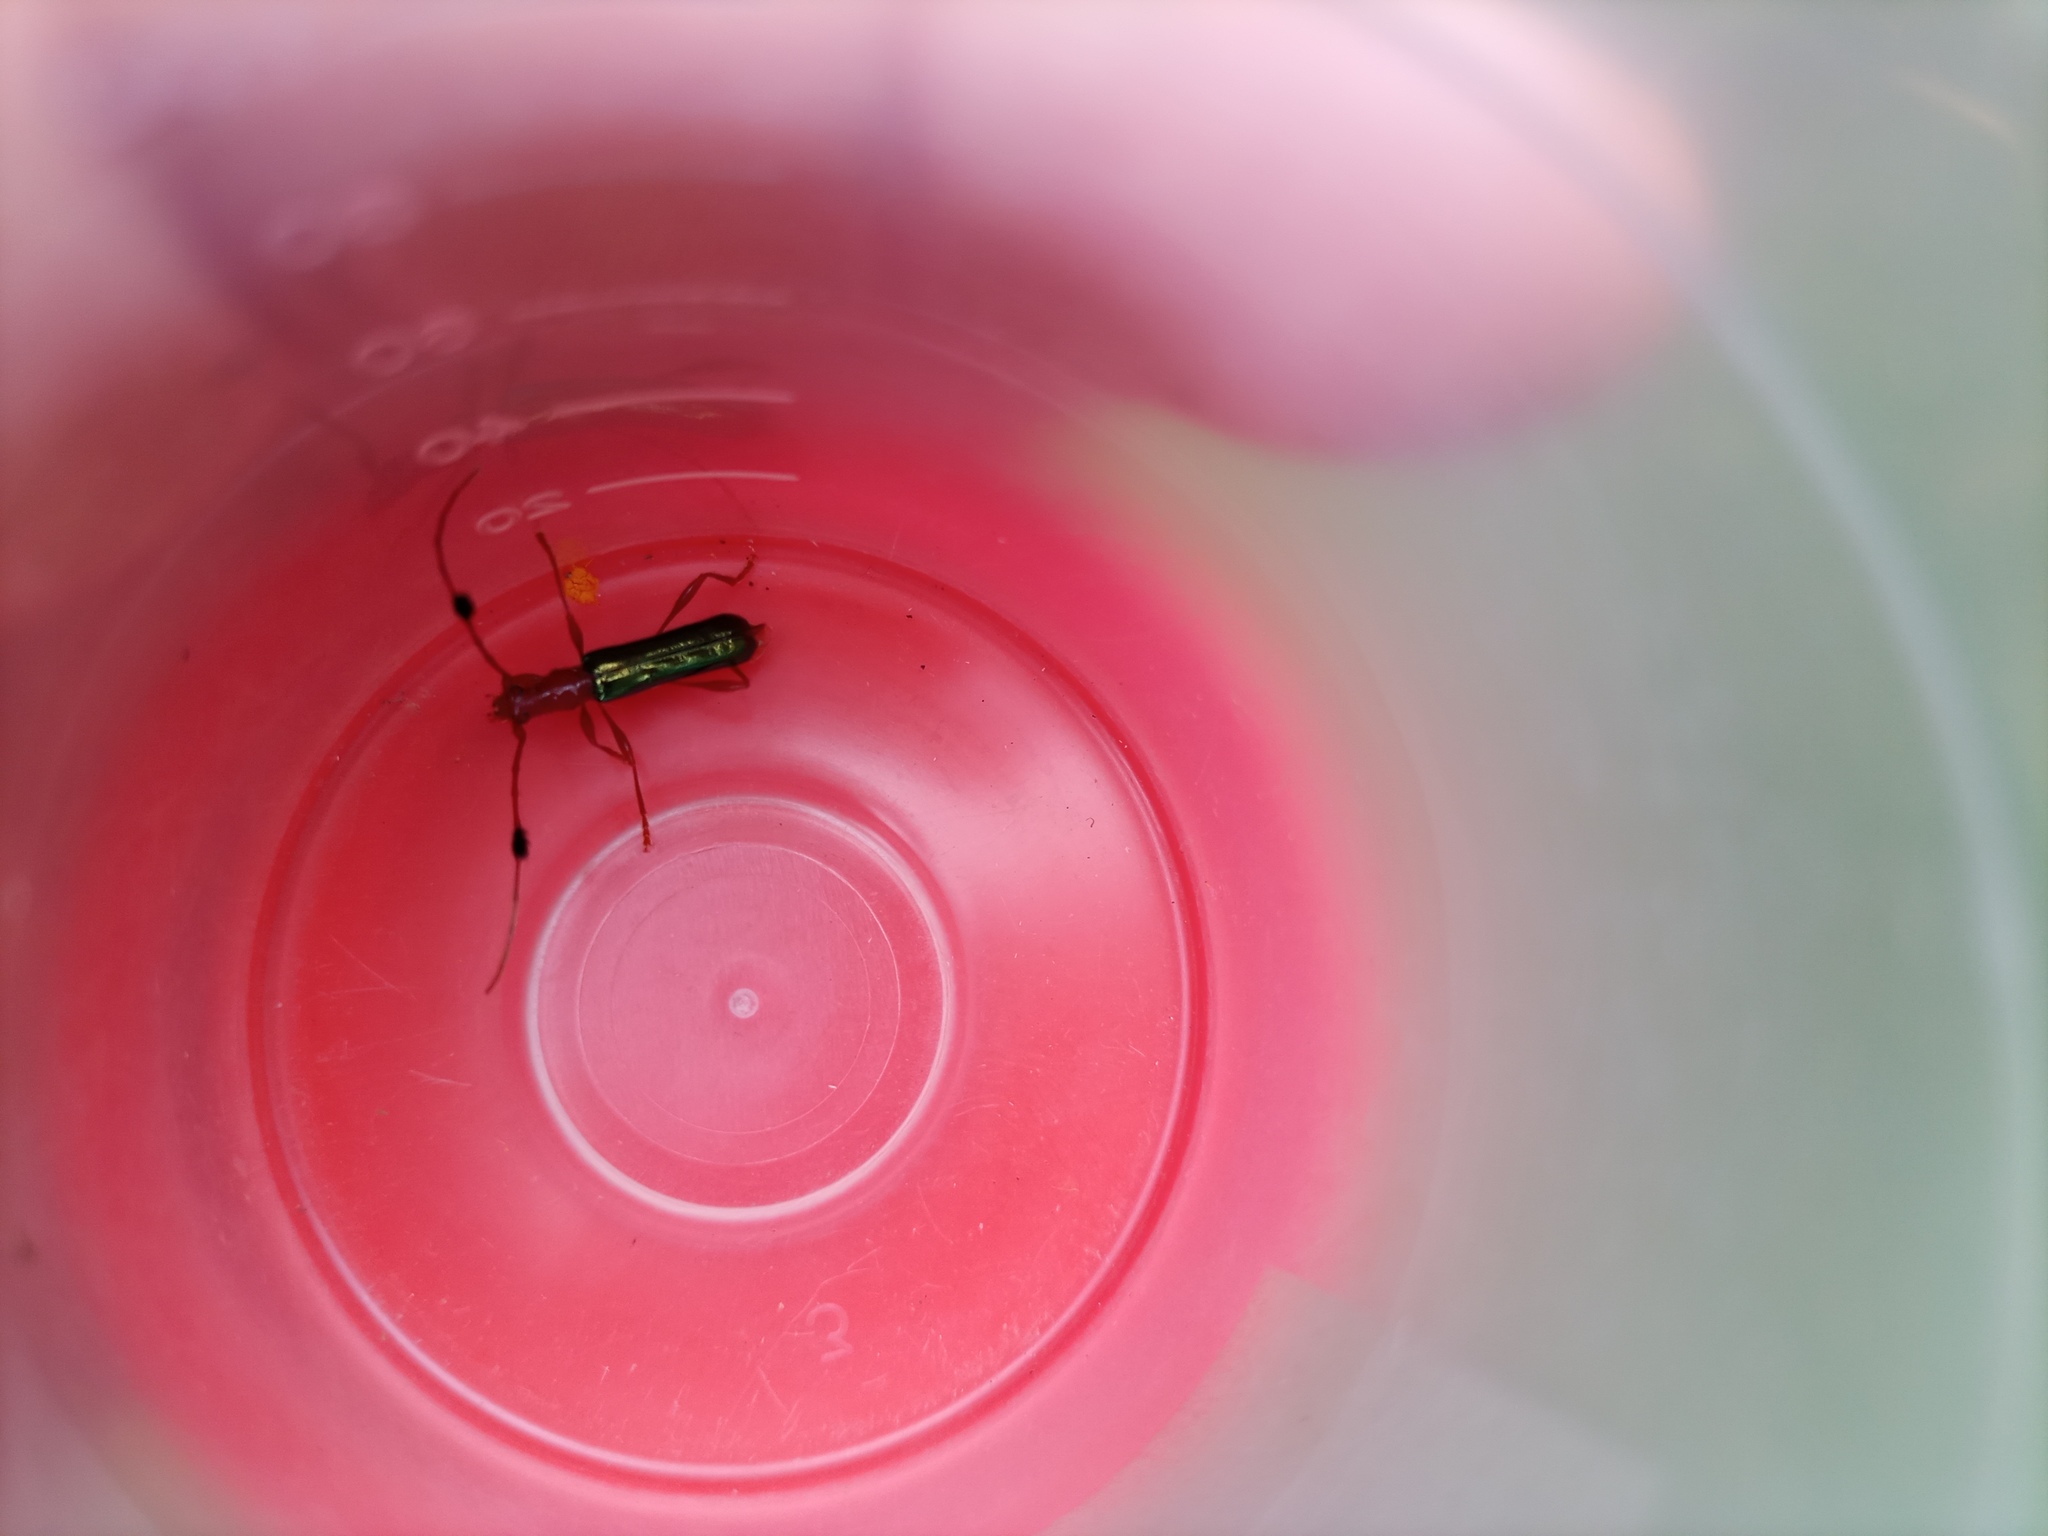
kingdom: Animalia
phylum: Arthropoda
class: Insecta
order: Coleoptera
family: Cerambycidae
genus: Paromoeocerus
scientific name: Paromoeocerus barbicornis
